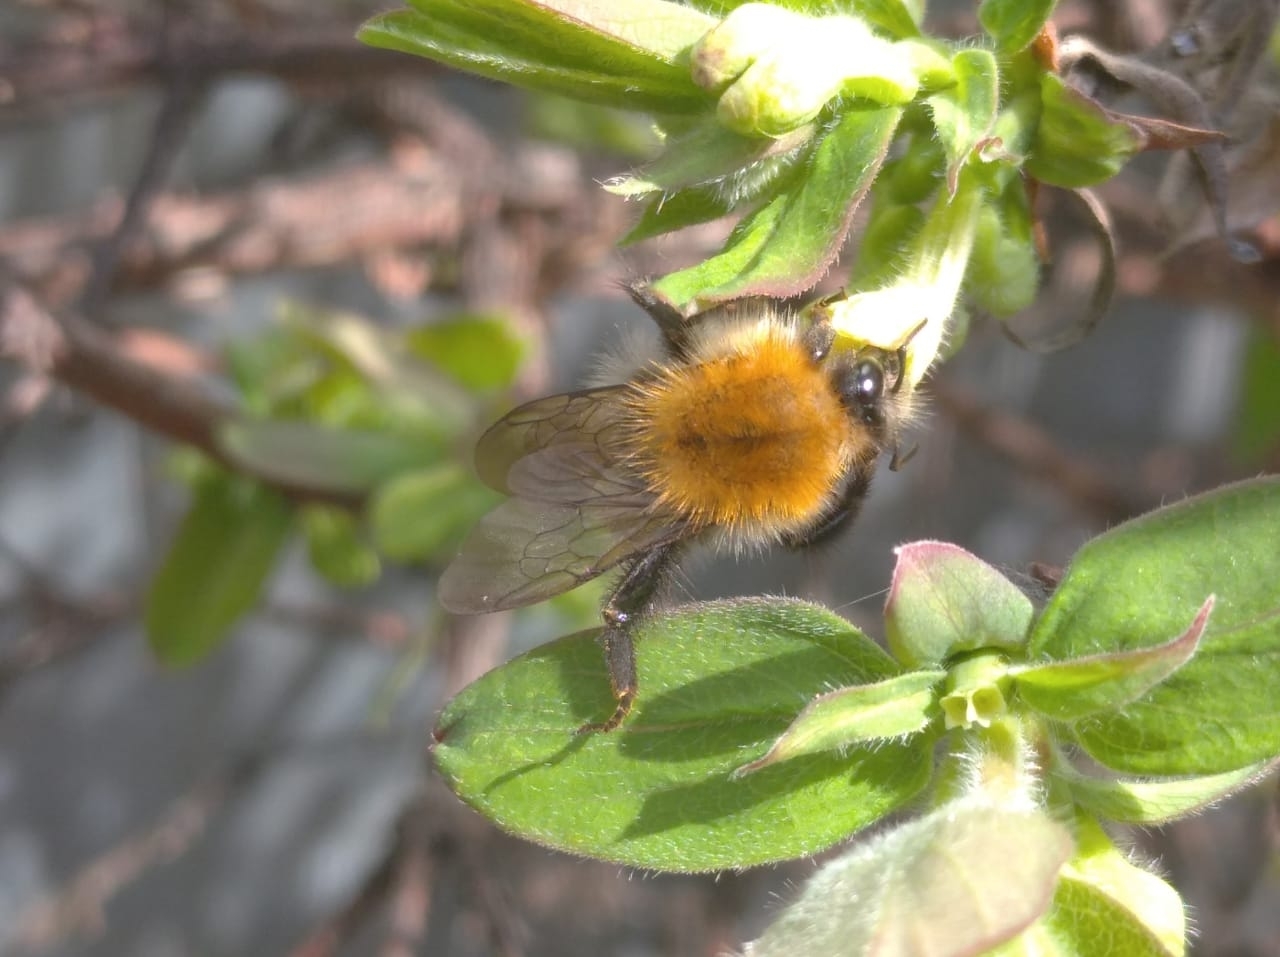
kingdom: Animalia
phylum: Arthropoda
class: Insecta
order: Hymenoptera
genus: Thoracobombus
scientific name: Thoracobombus
